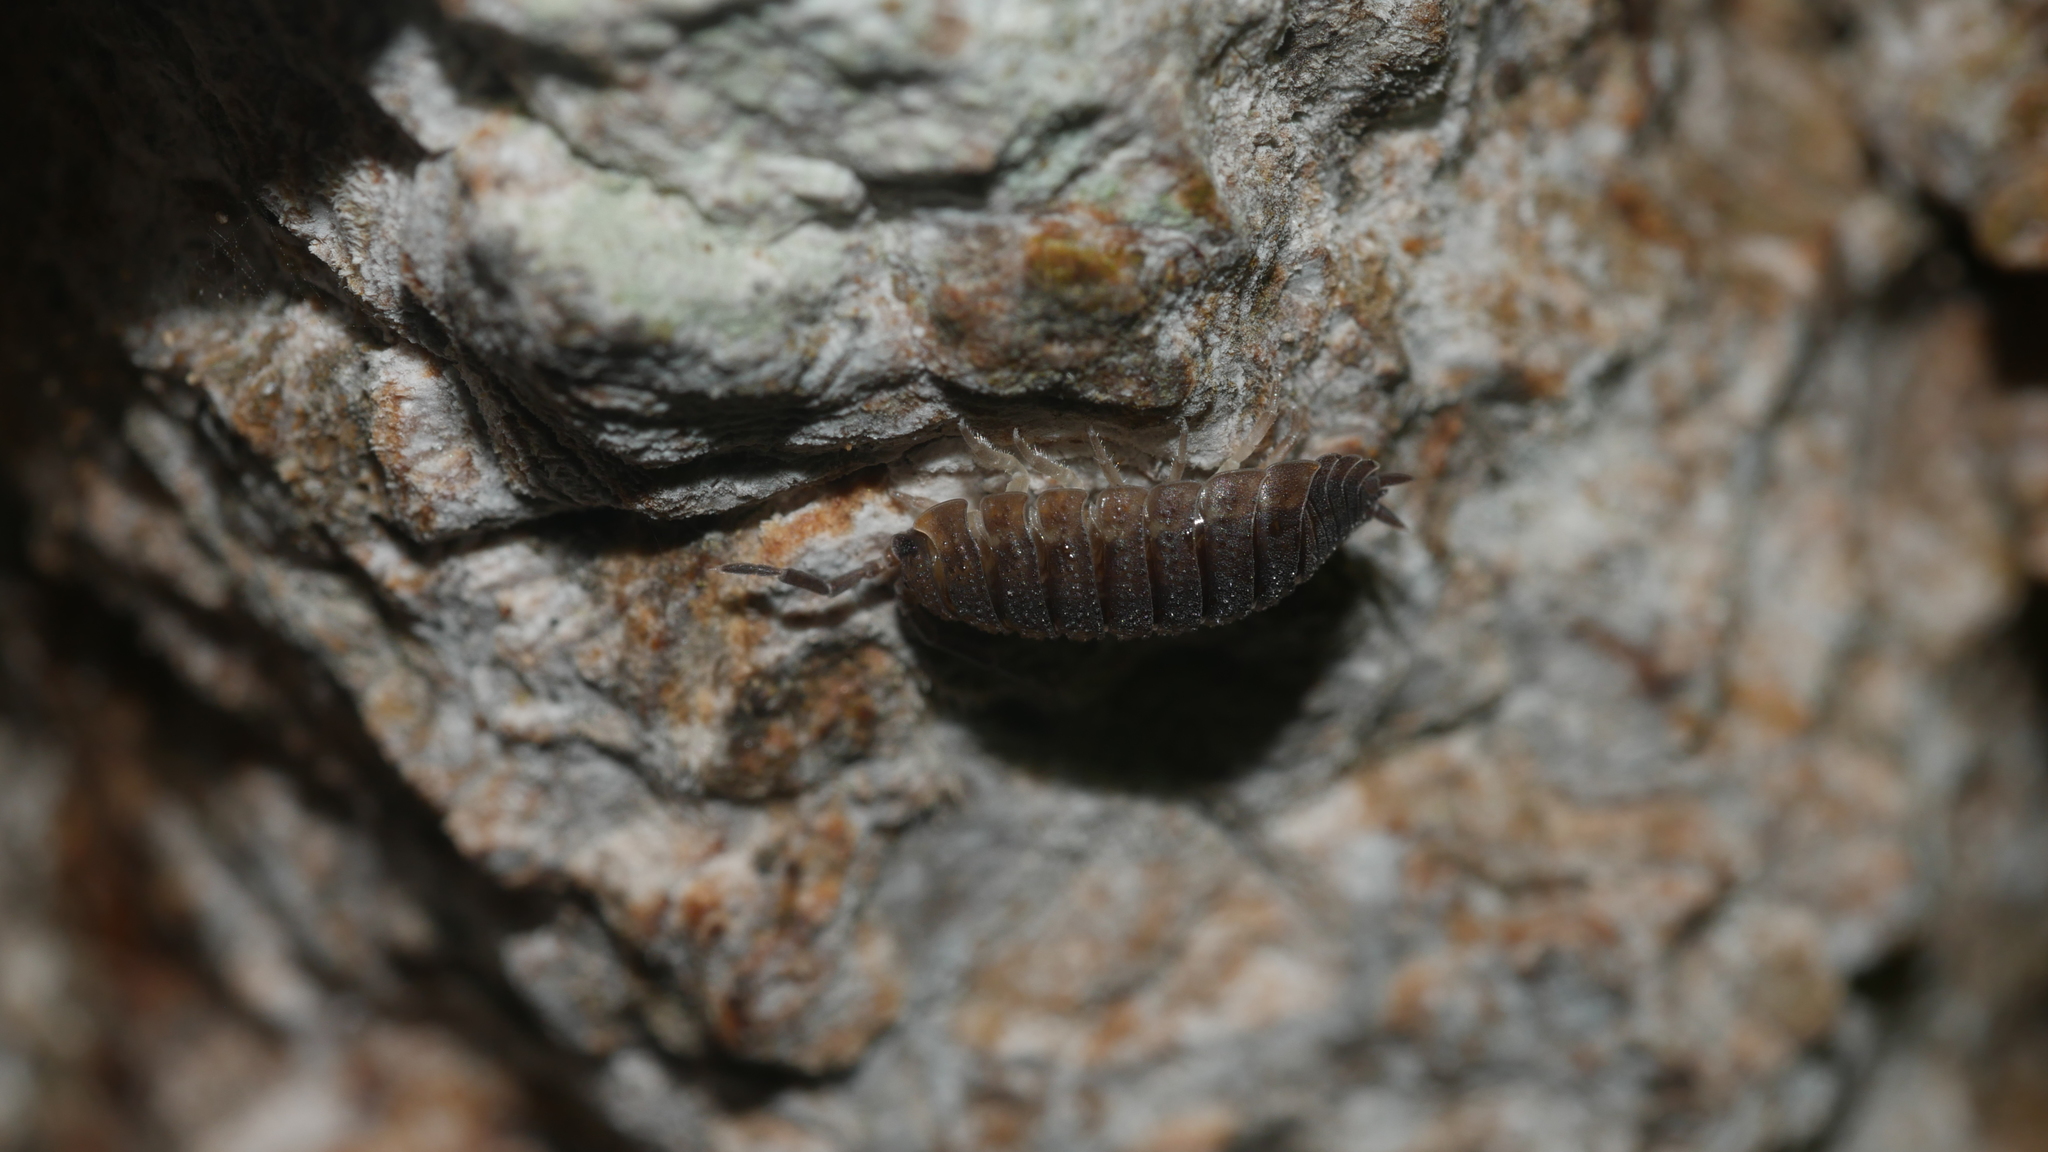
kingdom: Animalia
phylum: Arthropoda
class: Malacostraca
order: Isopoda
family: Porcellionidae
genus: Porcellio
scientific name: Porcellio scaber
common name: Common rough woodlouse
